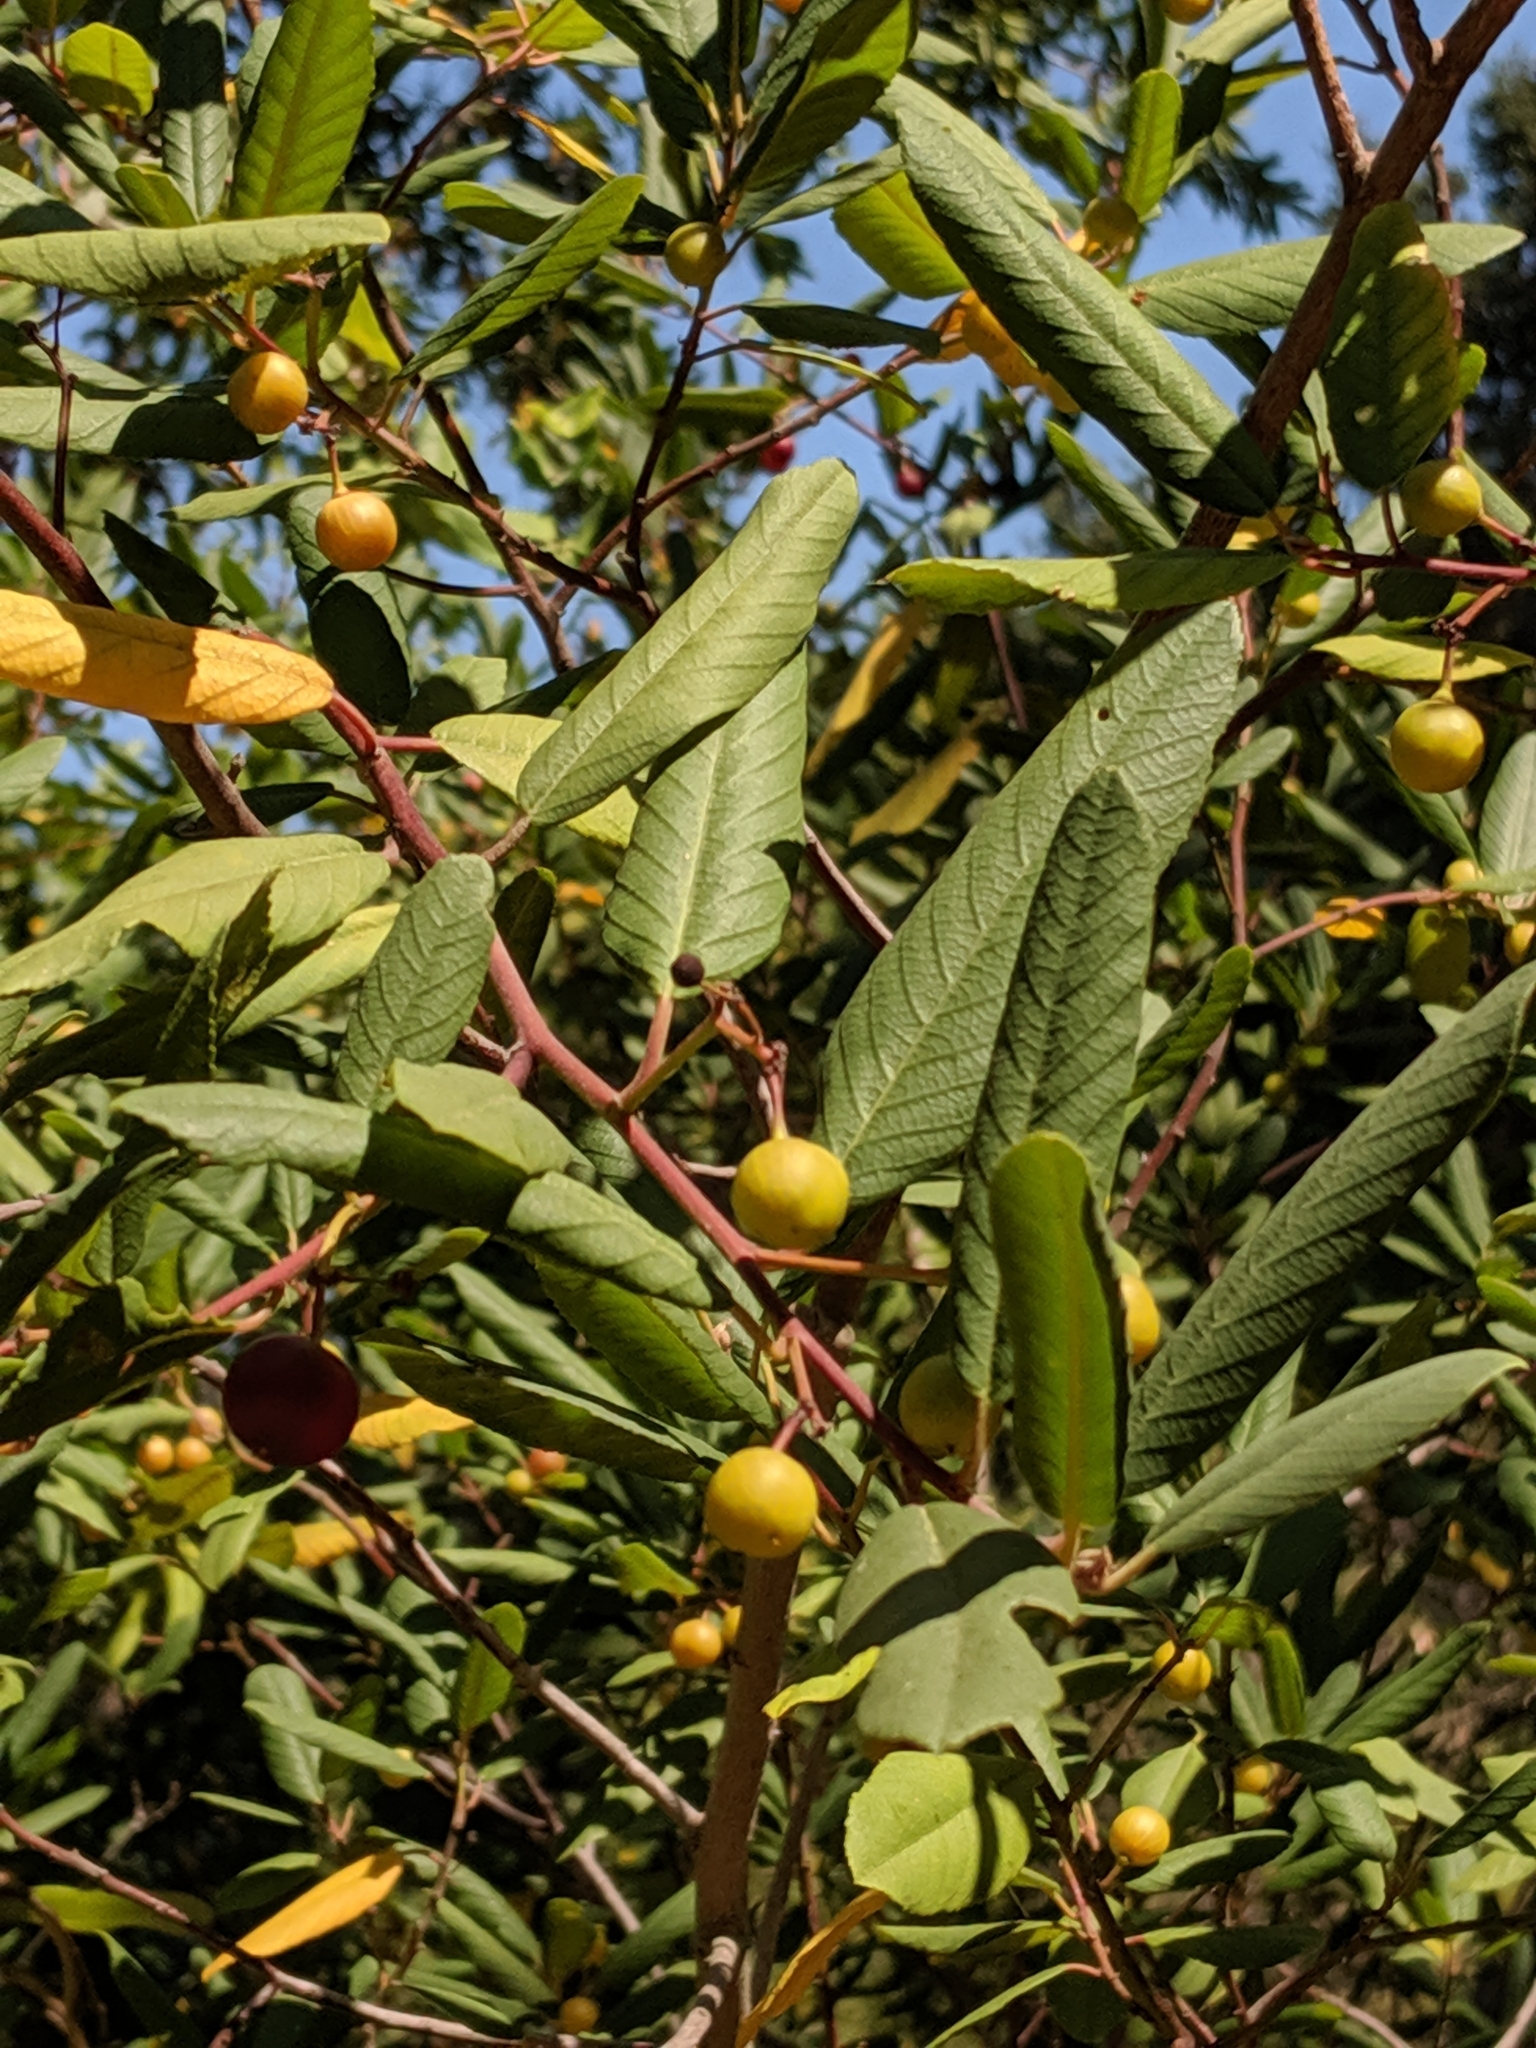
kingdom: Plantae
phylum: Tracheophyta
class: Magnoliopsida
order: Rosales
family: Rhamnaceae
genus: Frangula
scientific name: Frangula californica
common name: California buckthorn
